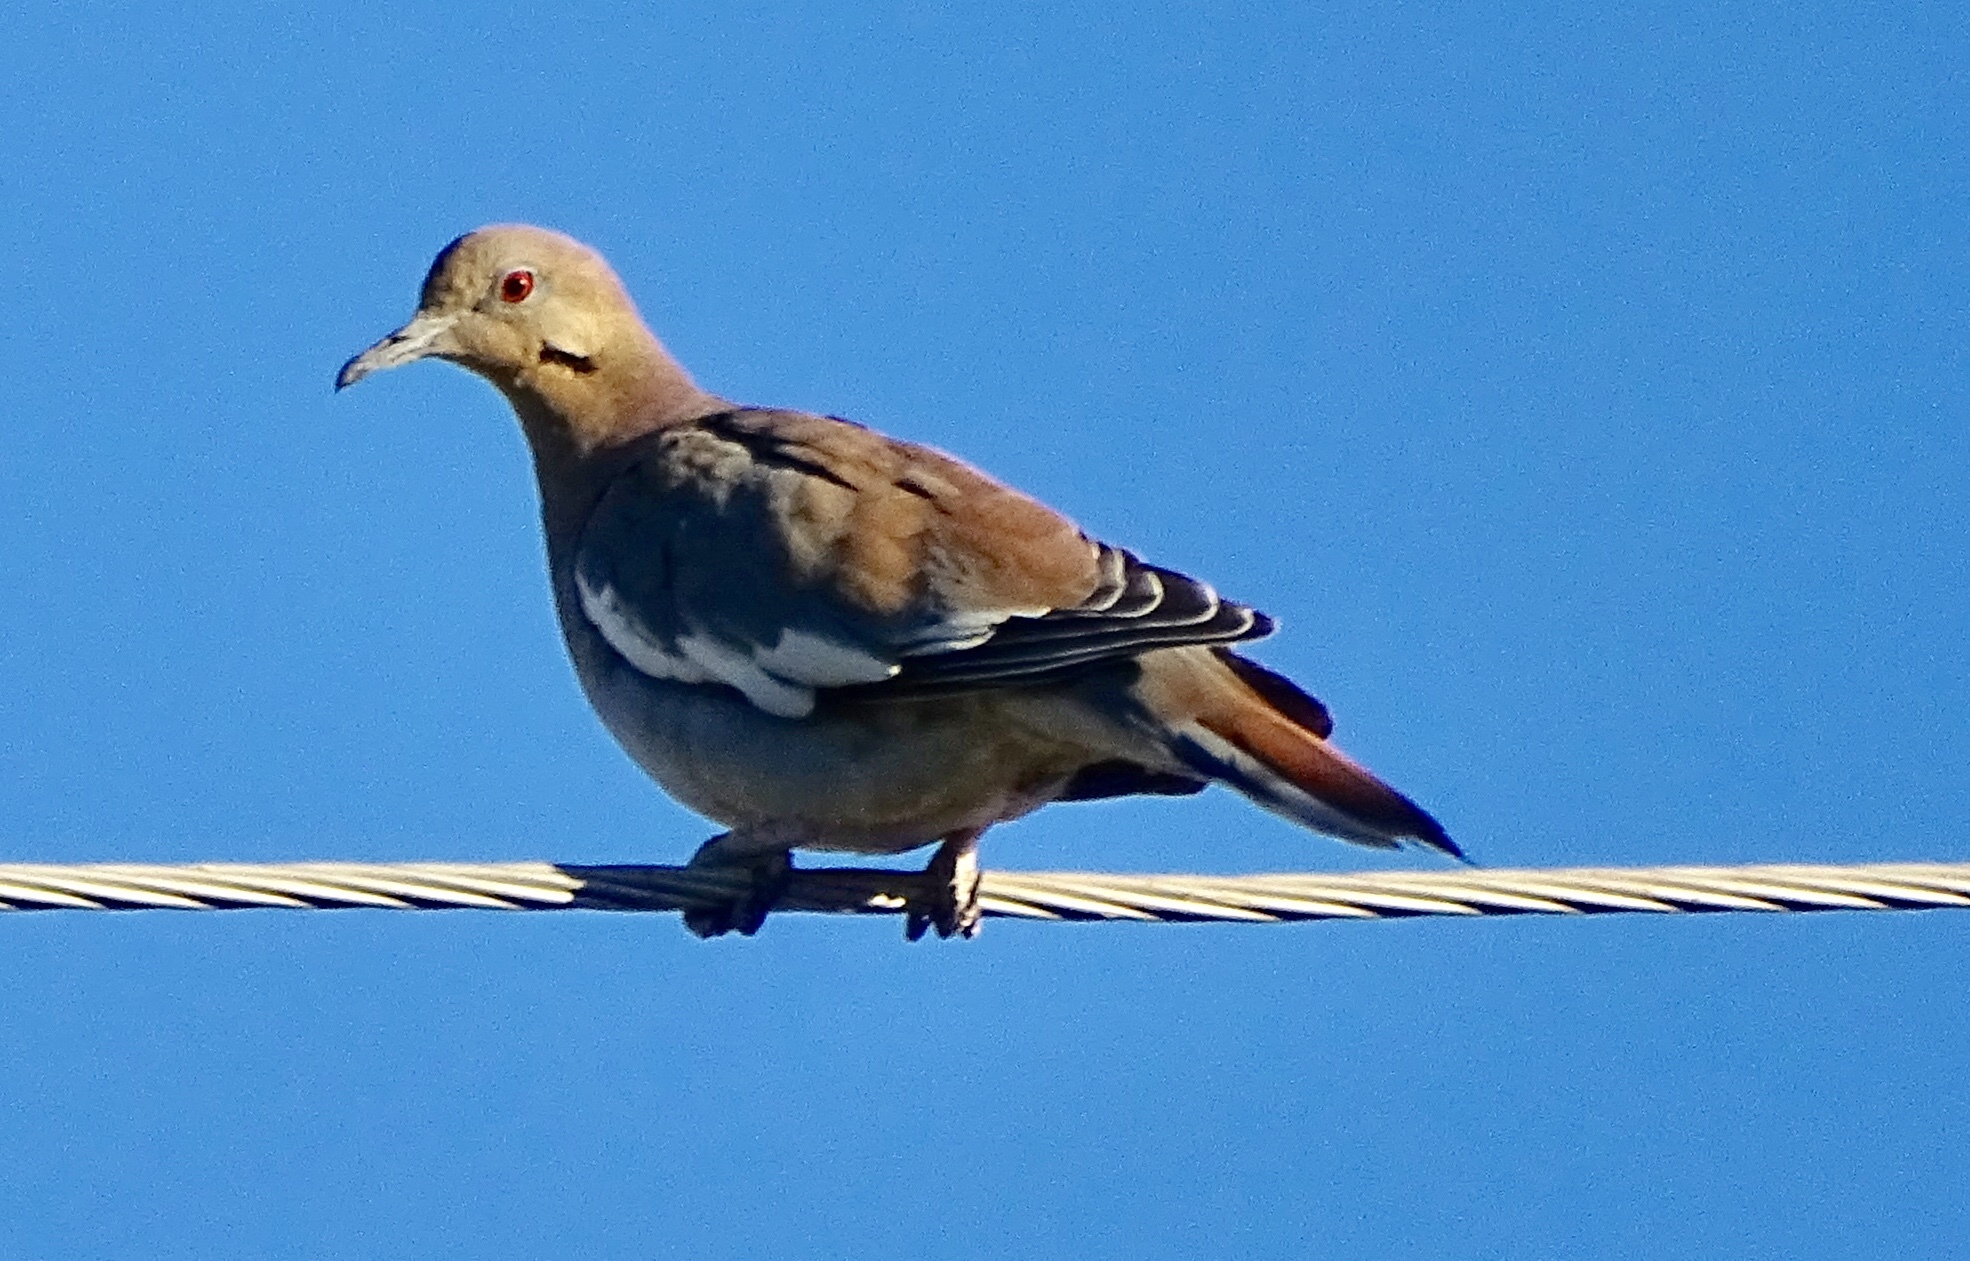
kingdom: Animalia
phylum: Chordata
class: Aves
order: Columbiformes
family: Columbidae
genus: Zenaida
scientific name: Zenaida asiatica
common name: White-winged dove
